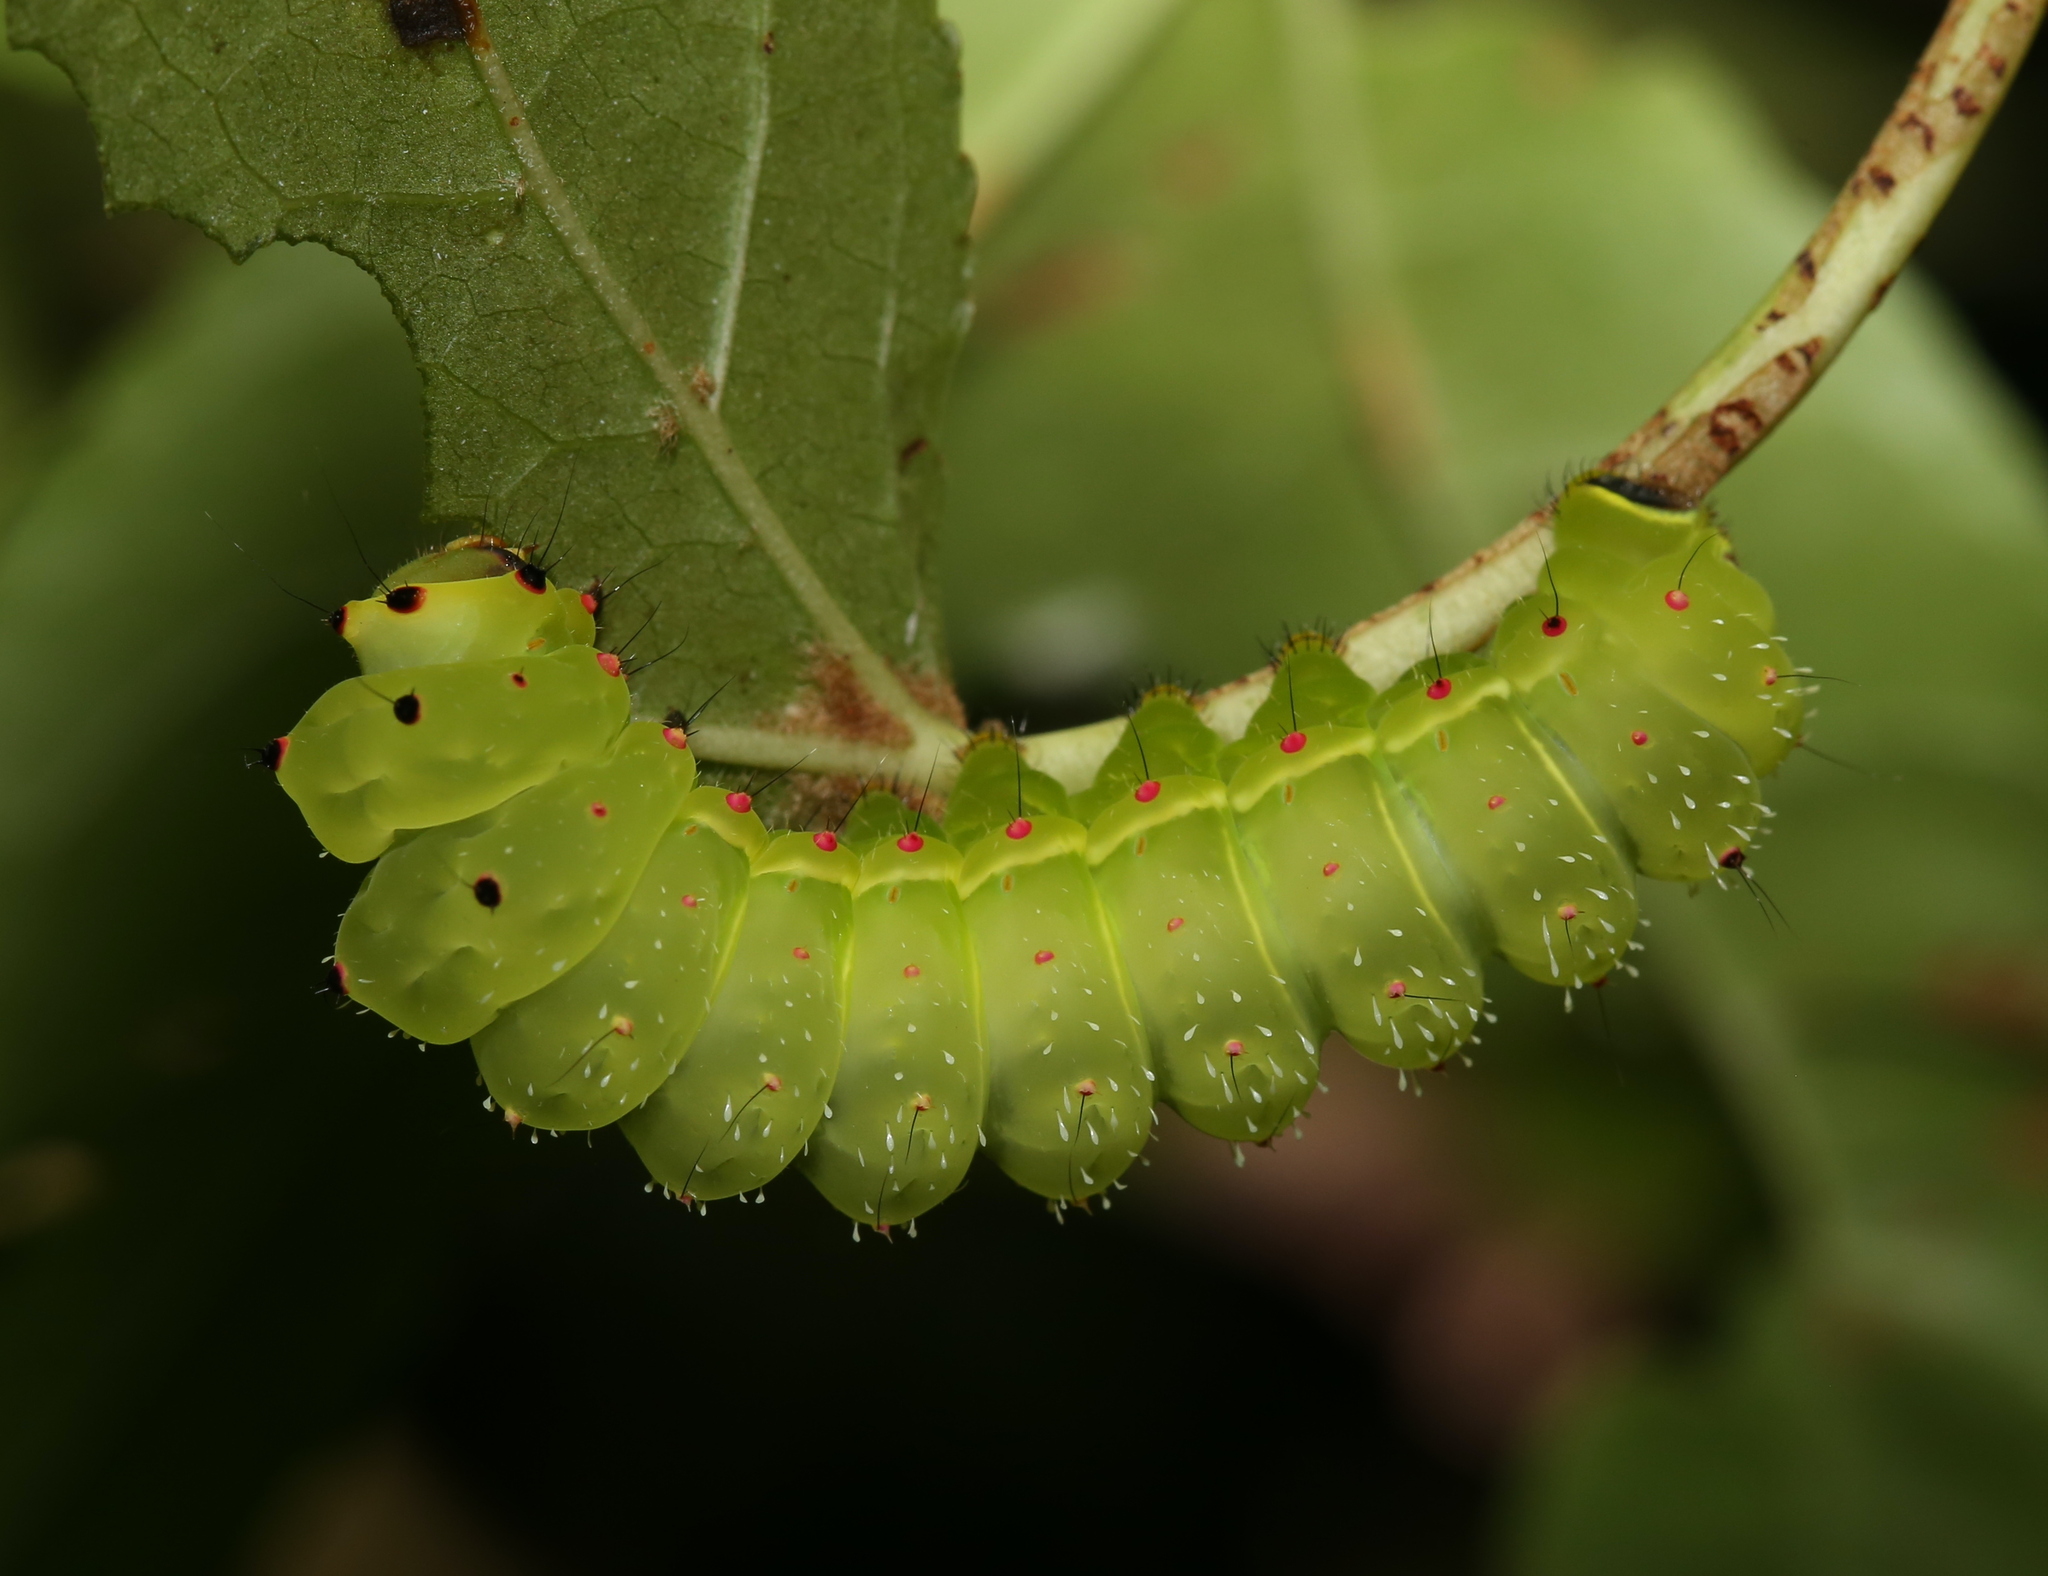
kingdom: Animalia
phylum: Arthropoda
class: Insecta
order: Lepidoptera
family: Saturniidae
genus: Actias
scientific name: Actias luna
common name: Luna moth
